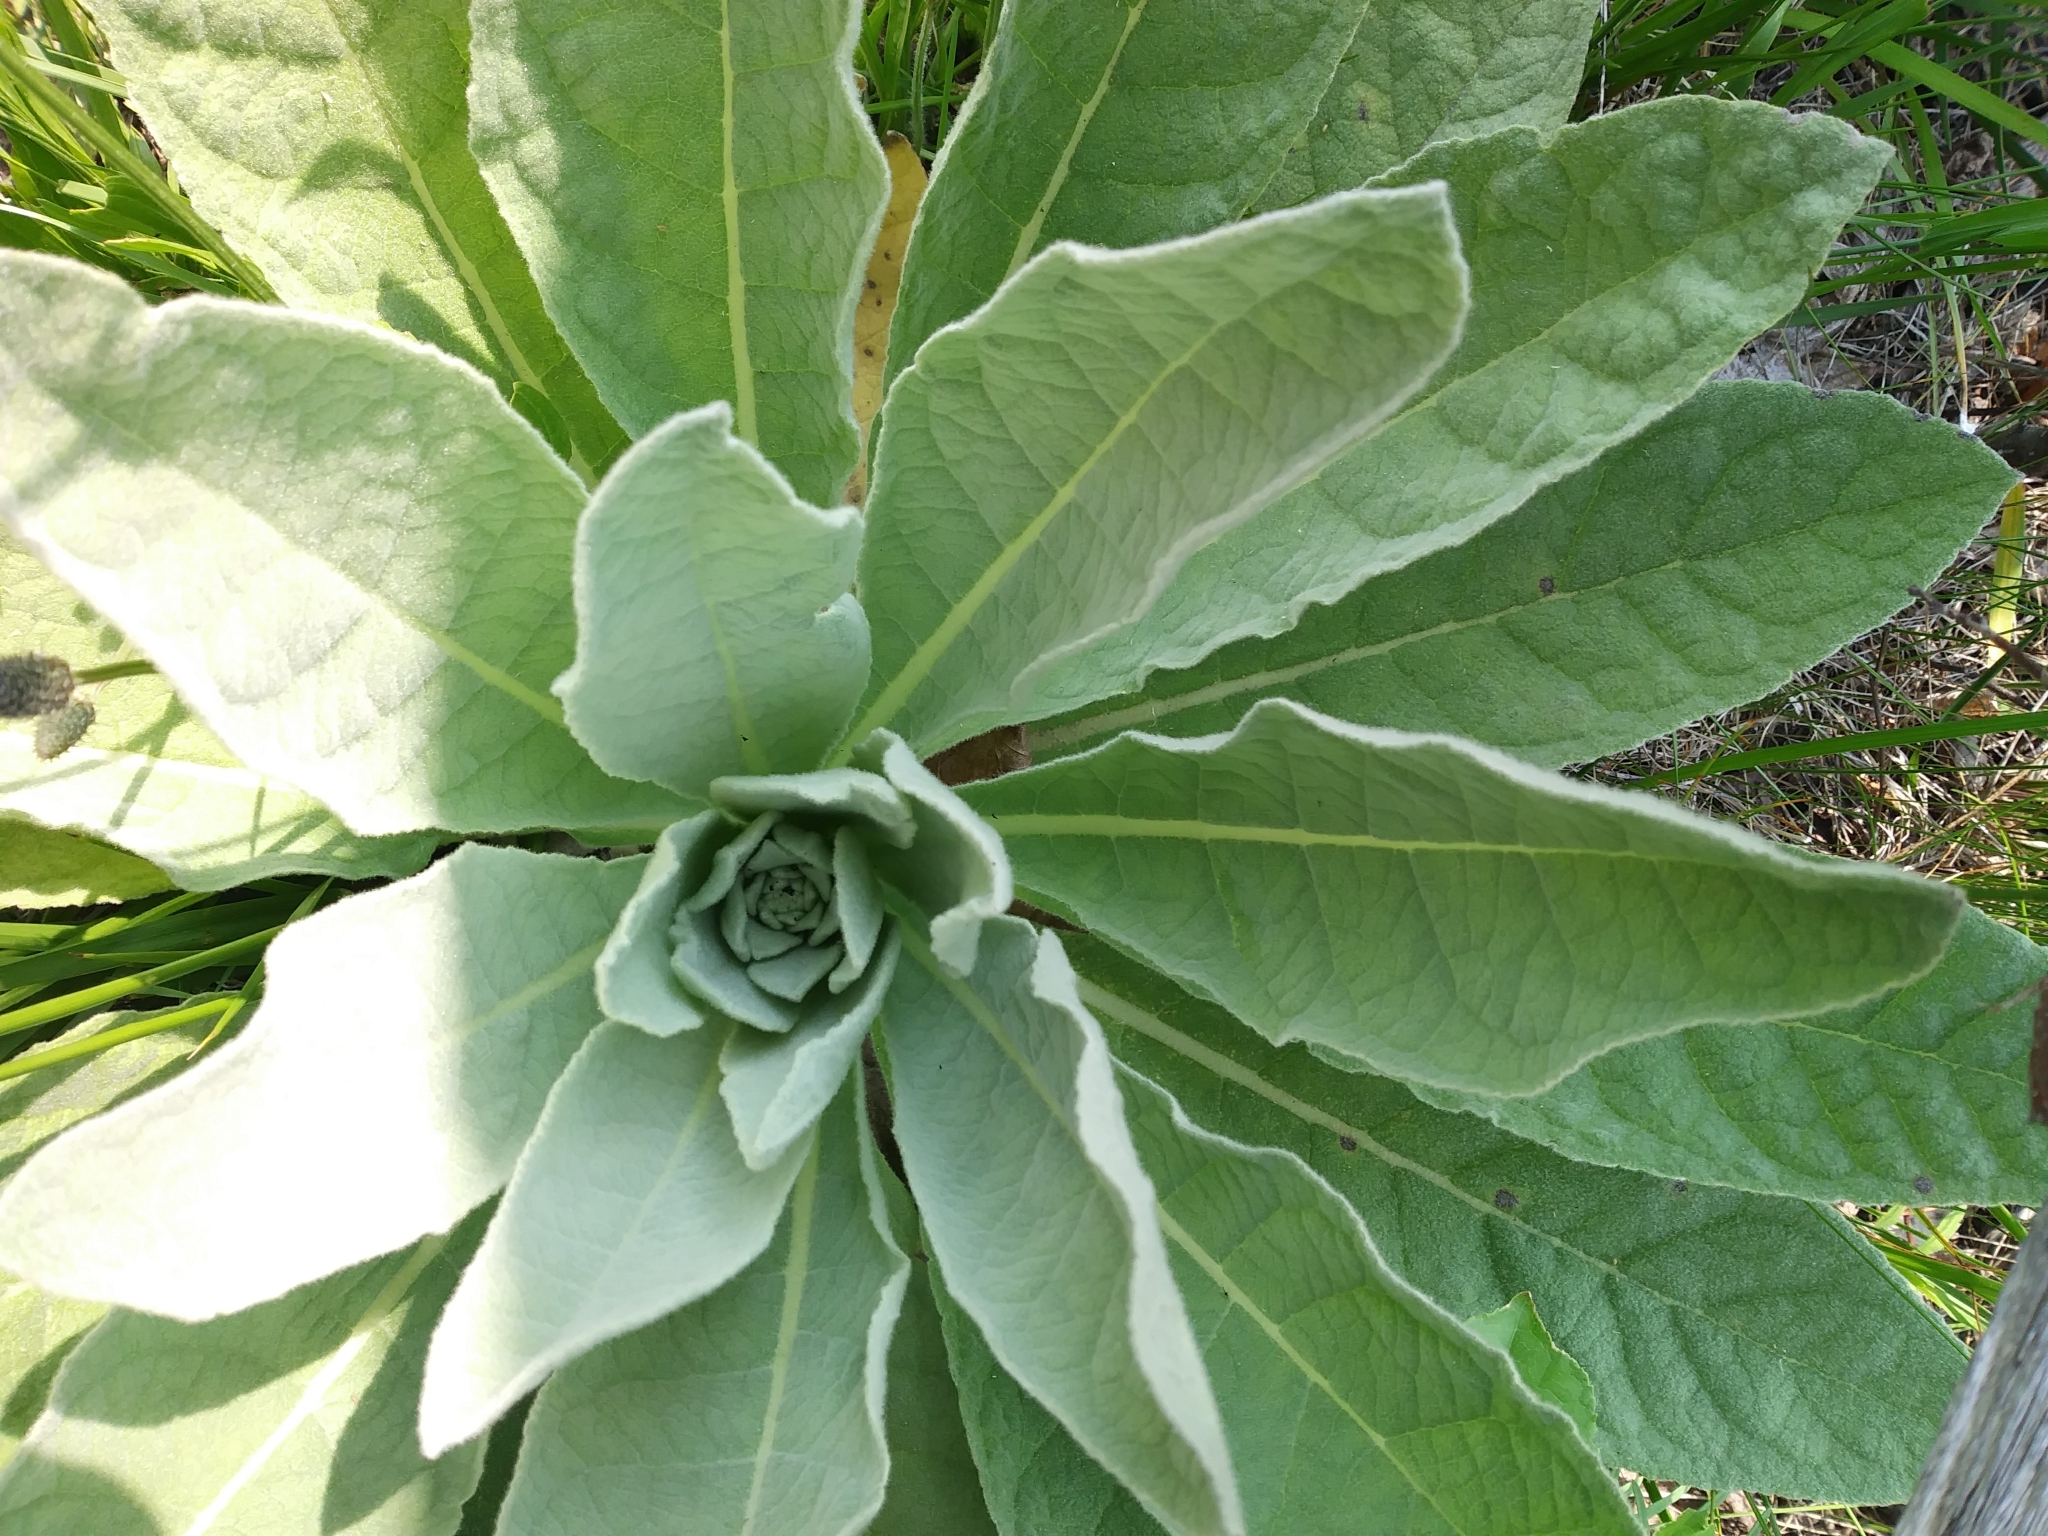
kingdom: Plantae
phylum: Tracheophyta
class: Magnoliopsida
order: Lamiales
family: Scrophulariaceae
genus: Verbascum
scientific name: Verbascum thapsus
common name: Common mullein
